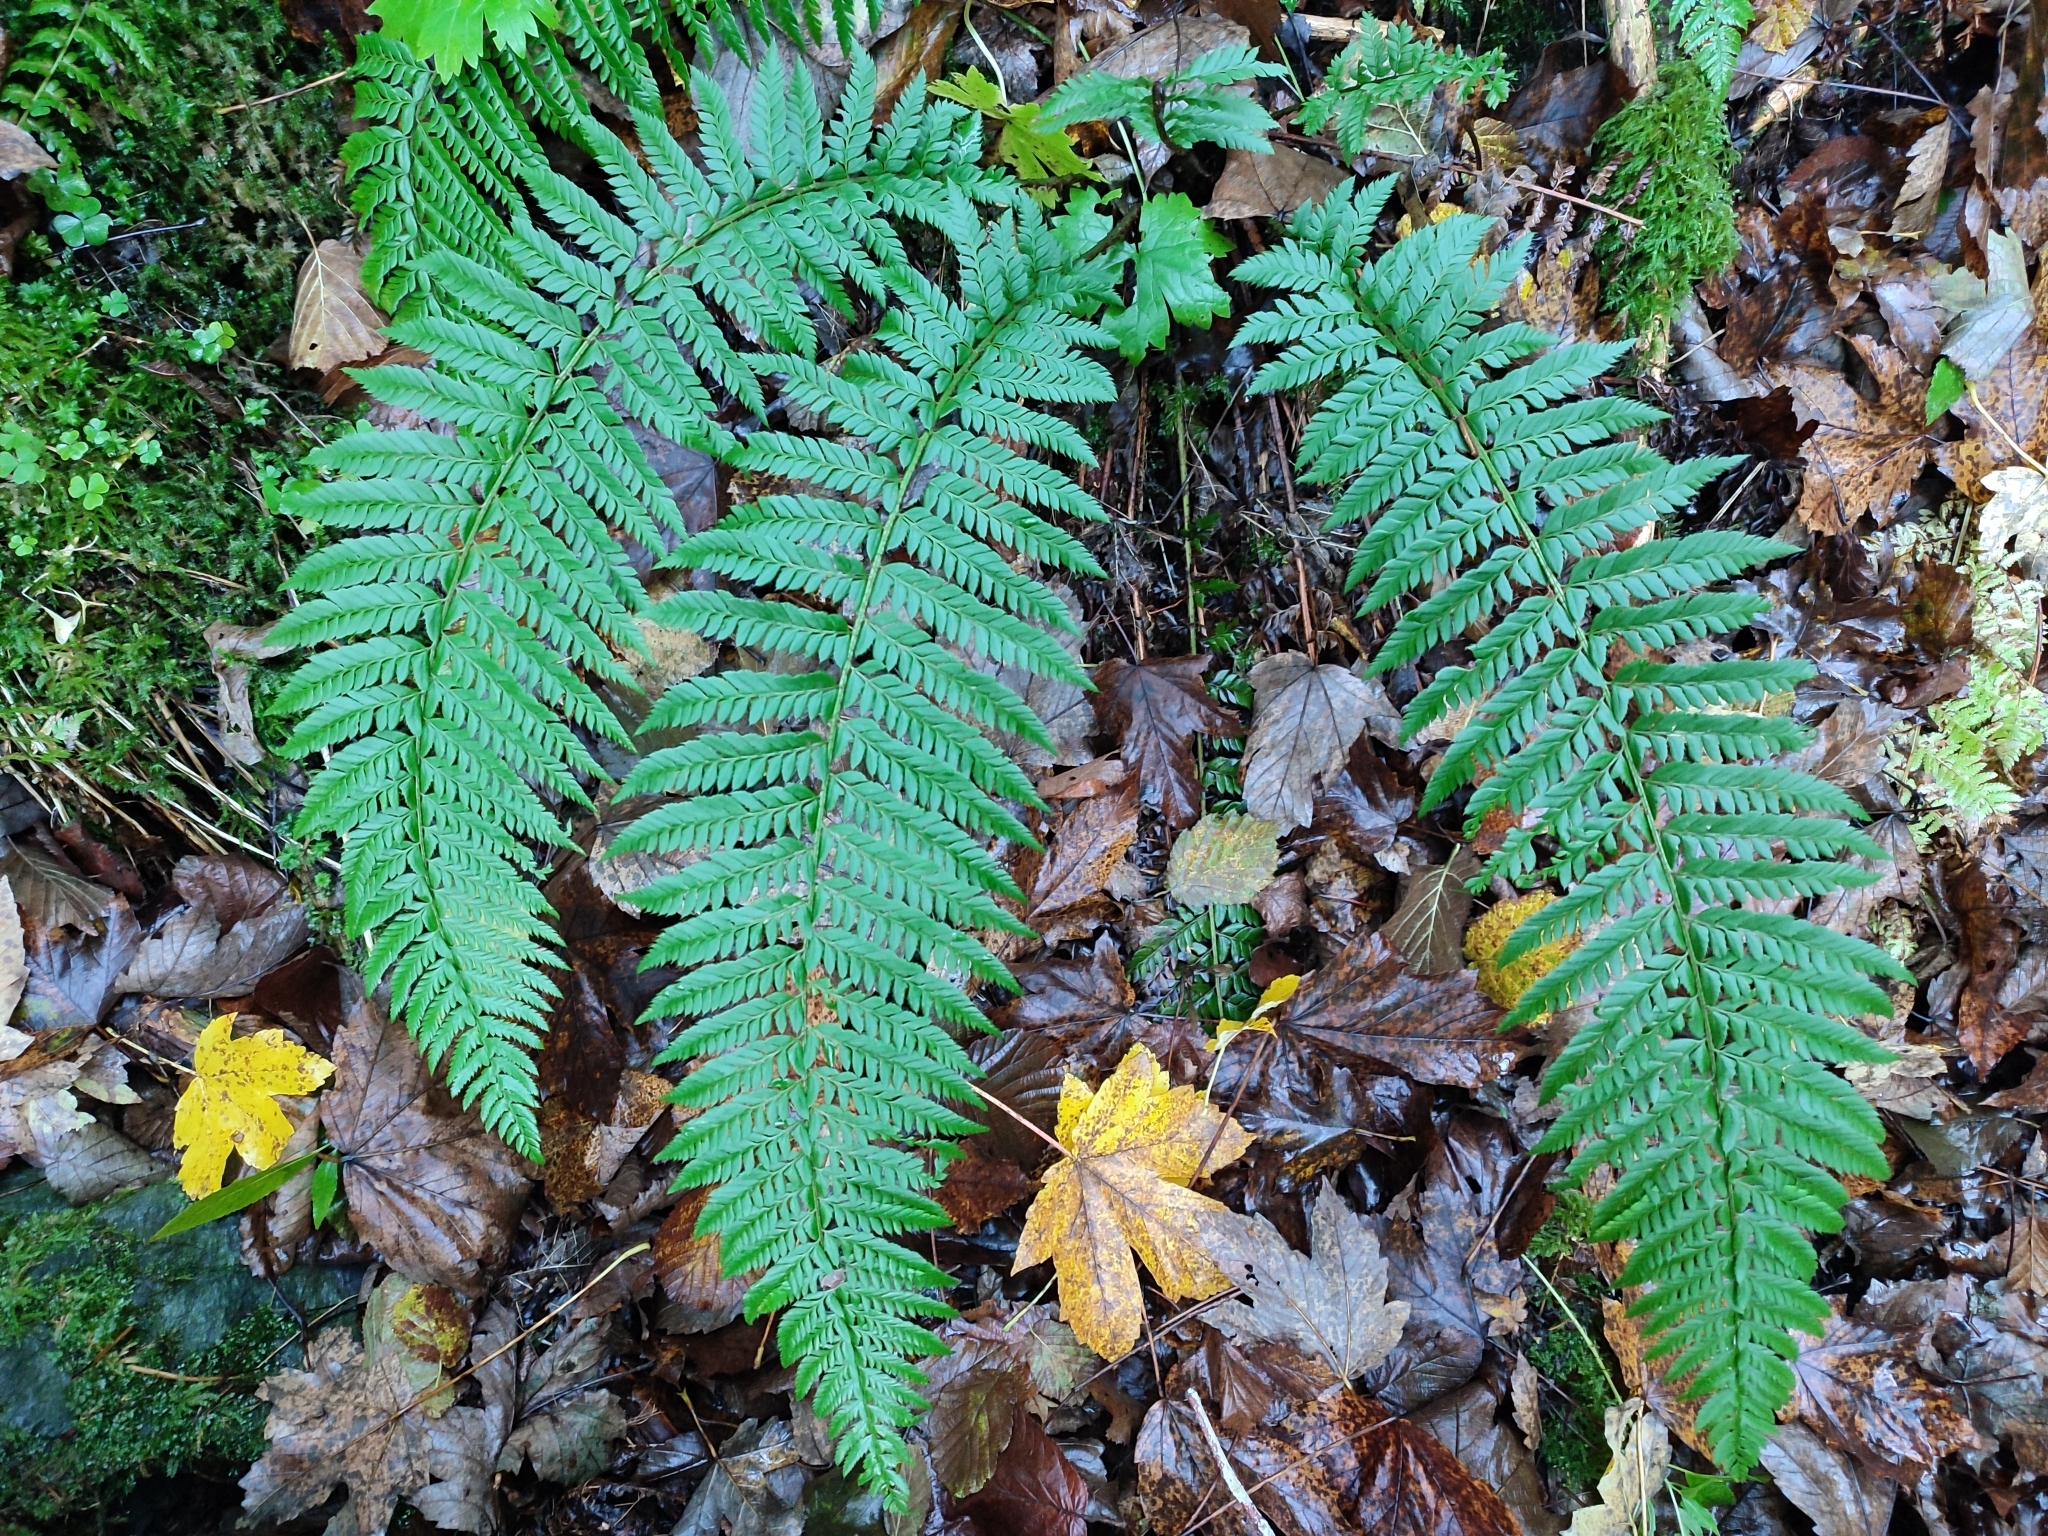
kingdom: Plantae
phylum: Tracheophyta
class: Polypodiopsida
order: Polypodiales
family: Dryopteridaceae
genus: Polystichum
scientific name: Polystichum aculeatum
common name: Hard shield-fern
